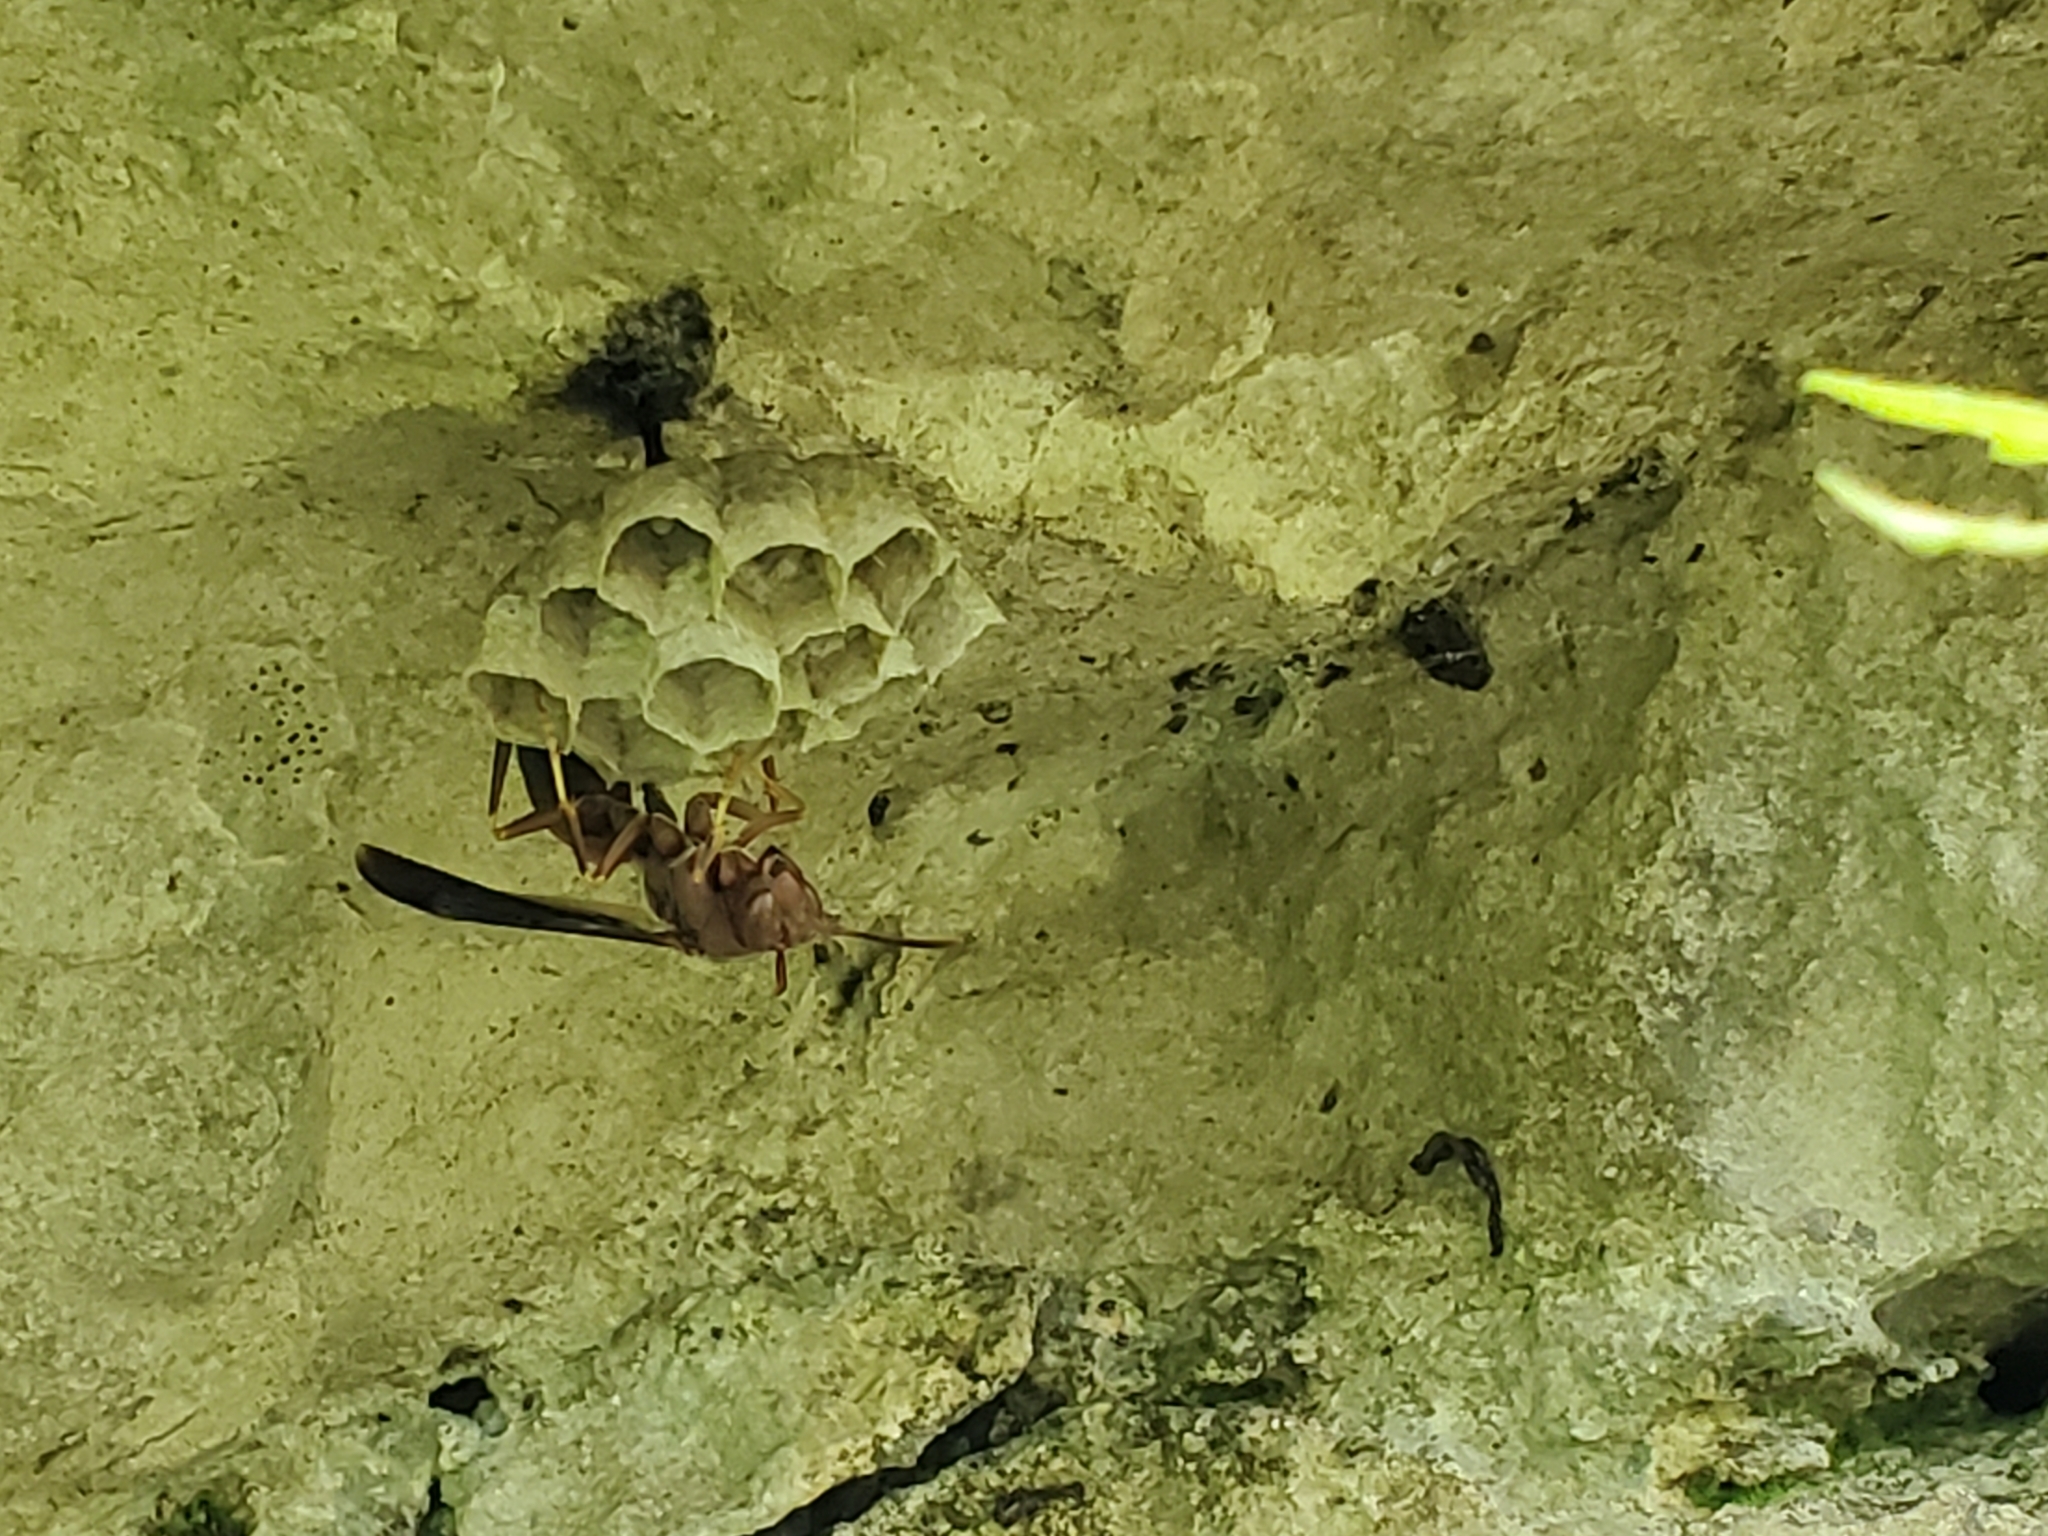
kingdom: Animalia
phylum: Arthropoda
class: Insecta
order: Hymenoptera
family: Vespidae
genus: Fuscopolistes
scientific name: Fuscopolistes
